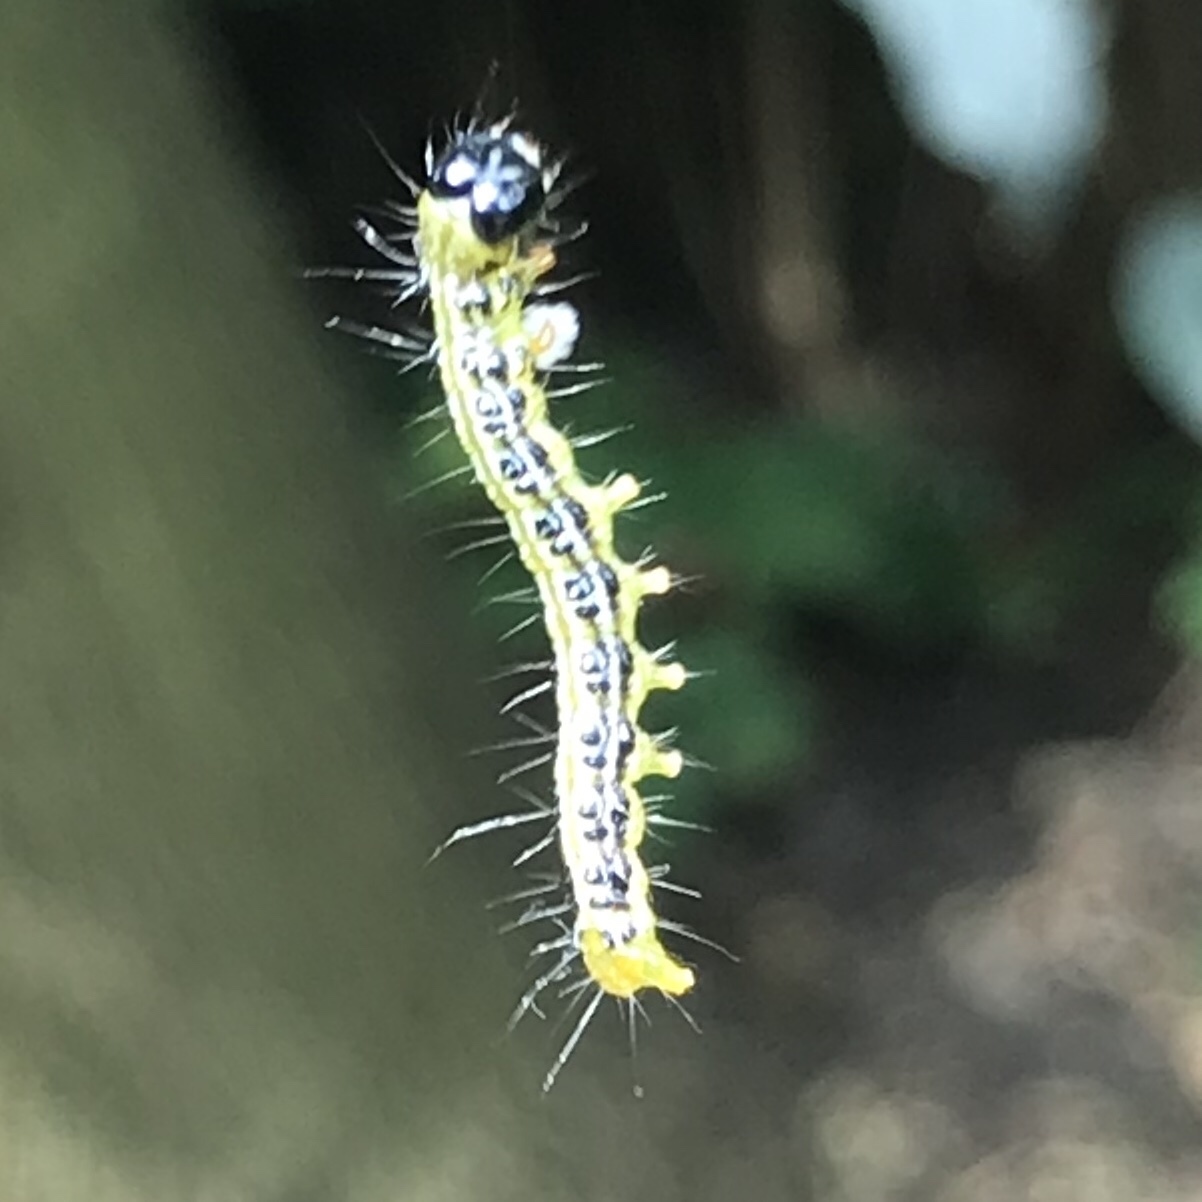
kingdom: Animalia
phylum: Arthropoda
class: Insecta
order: Lepidoptera
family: Crambidae
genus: Cydalima
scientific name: Cydalima perspectalis
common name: Box tree moth
